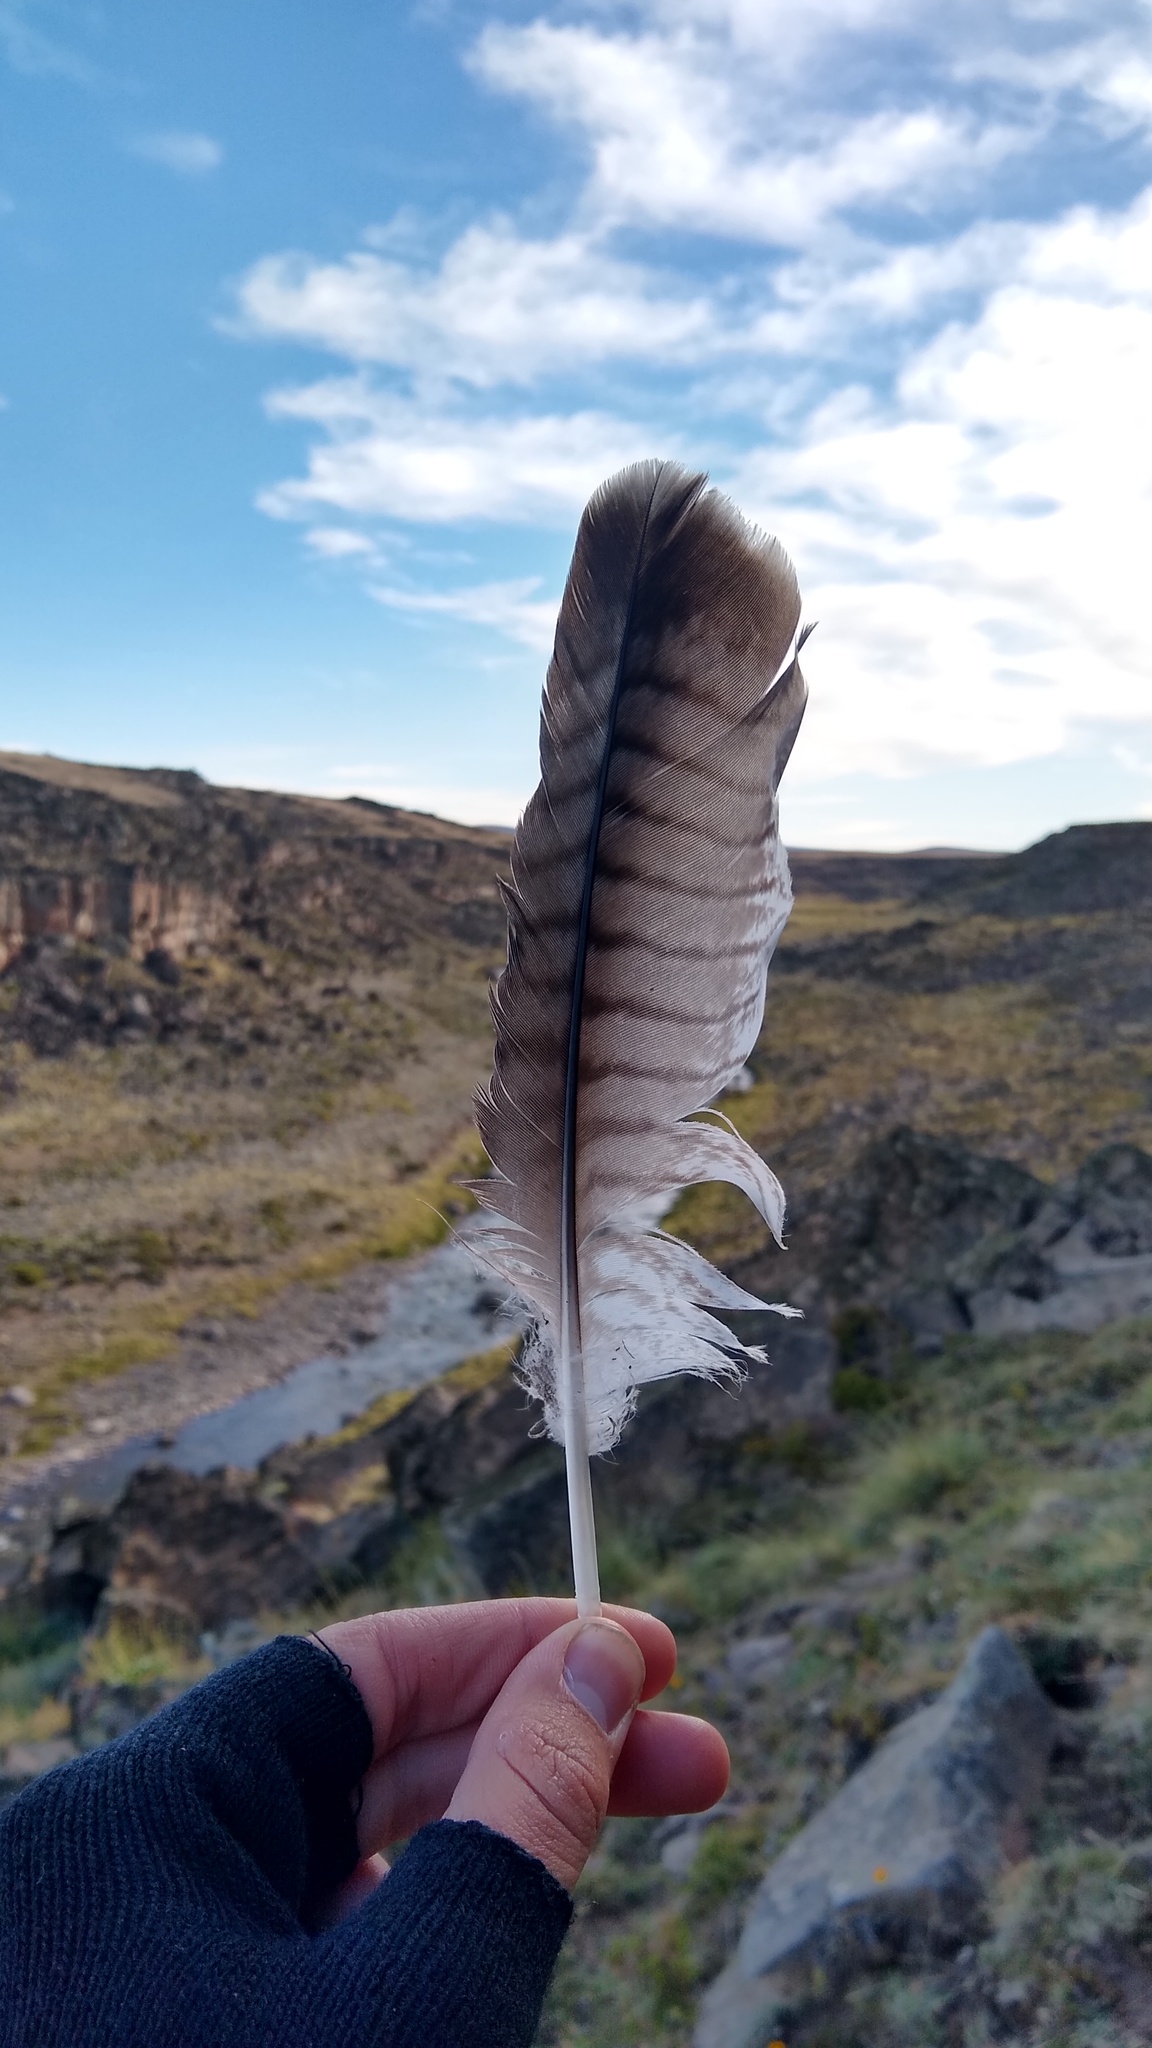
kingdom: Animalia
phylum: Chordata
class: Aves
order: Accipitriformes
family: Accipitridae
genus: Buteo
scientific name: Buteo polyosoma
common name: Variable hawk
